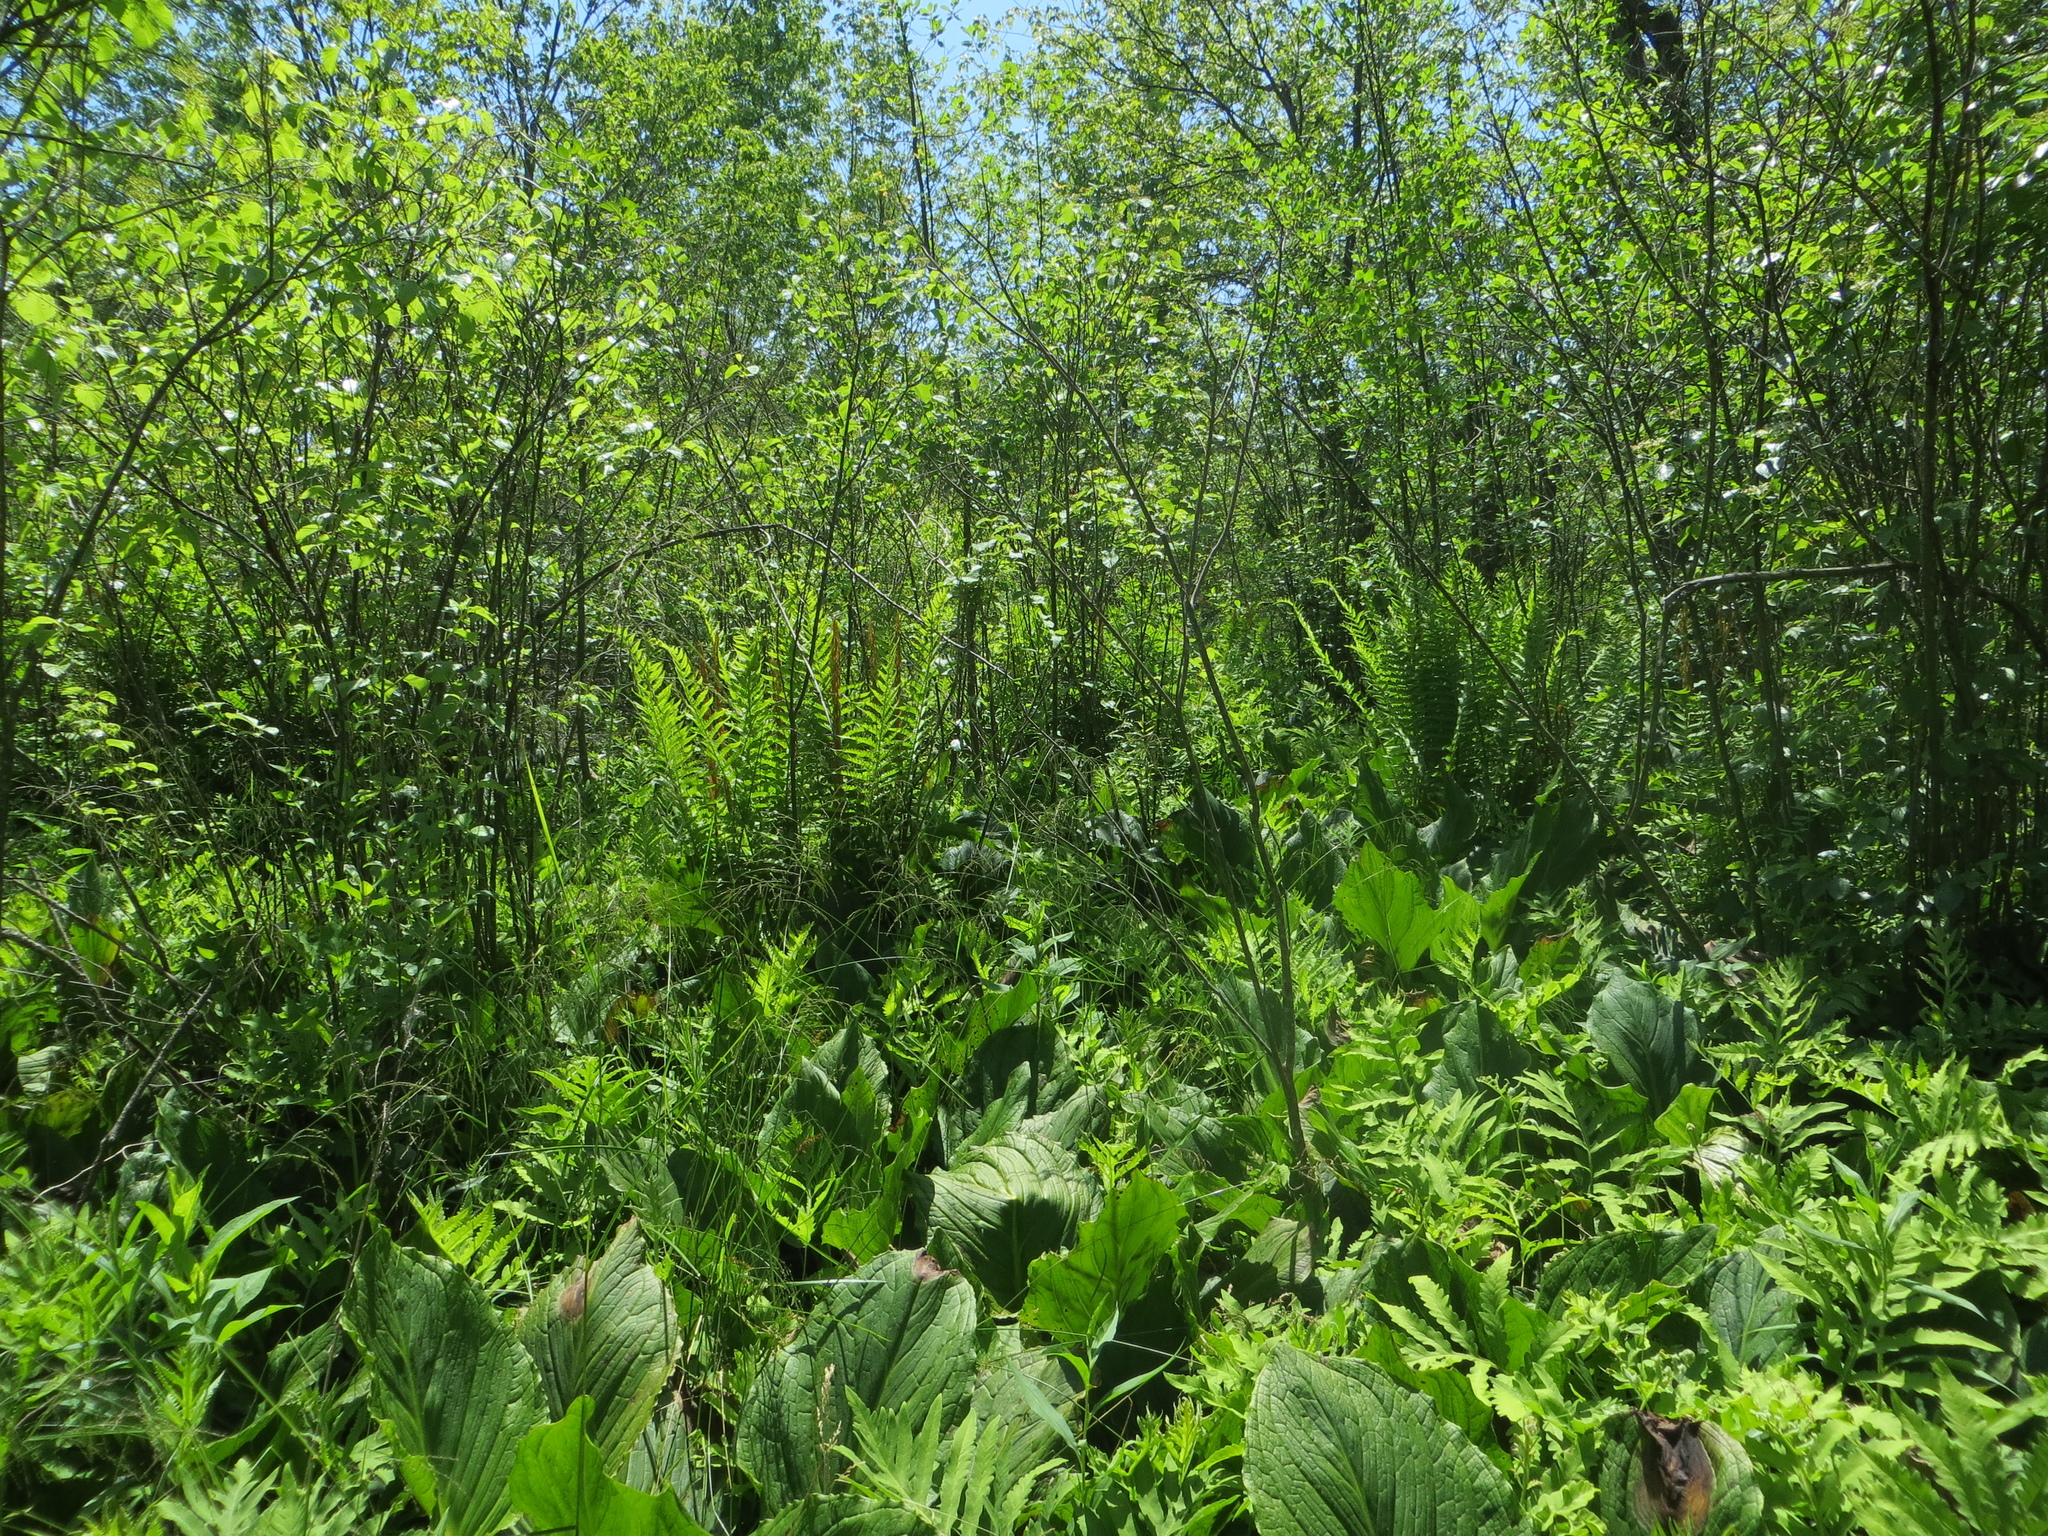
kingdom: Plantae
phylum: Tracheophyta
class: Polypodiopsida
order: Osmundales
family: Osmundaceae
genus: Osmundastrum
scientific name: Osmundastrum cinnamomeum
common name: Cinnamon fern
